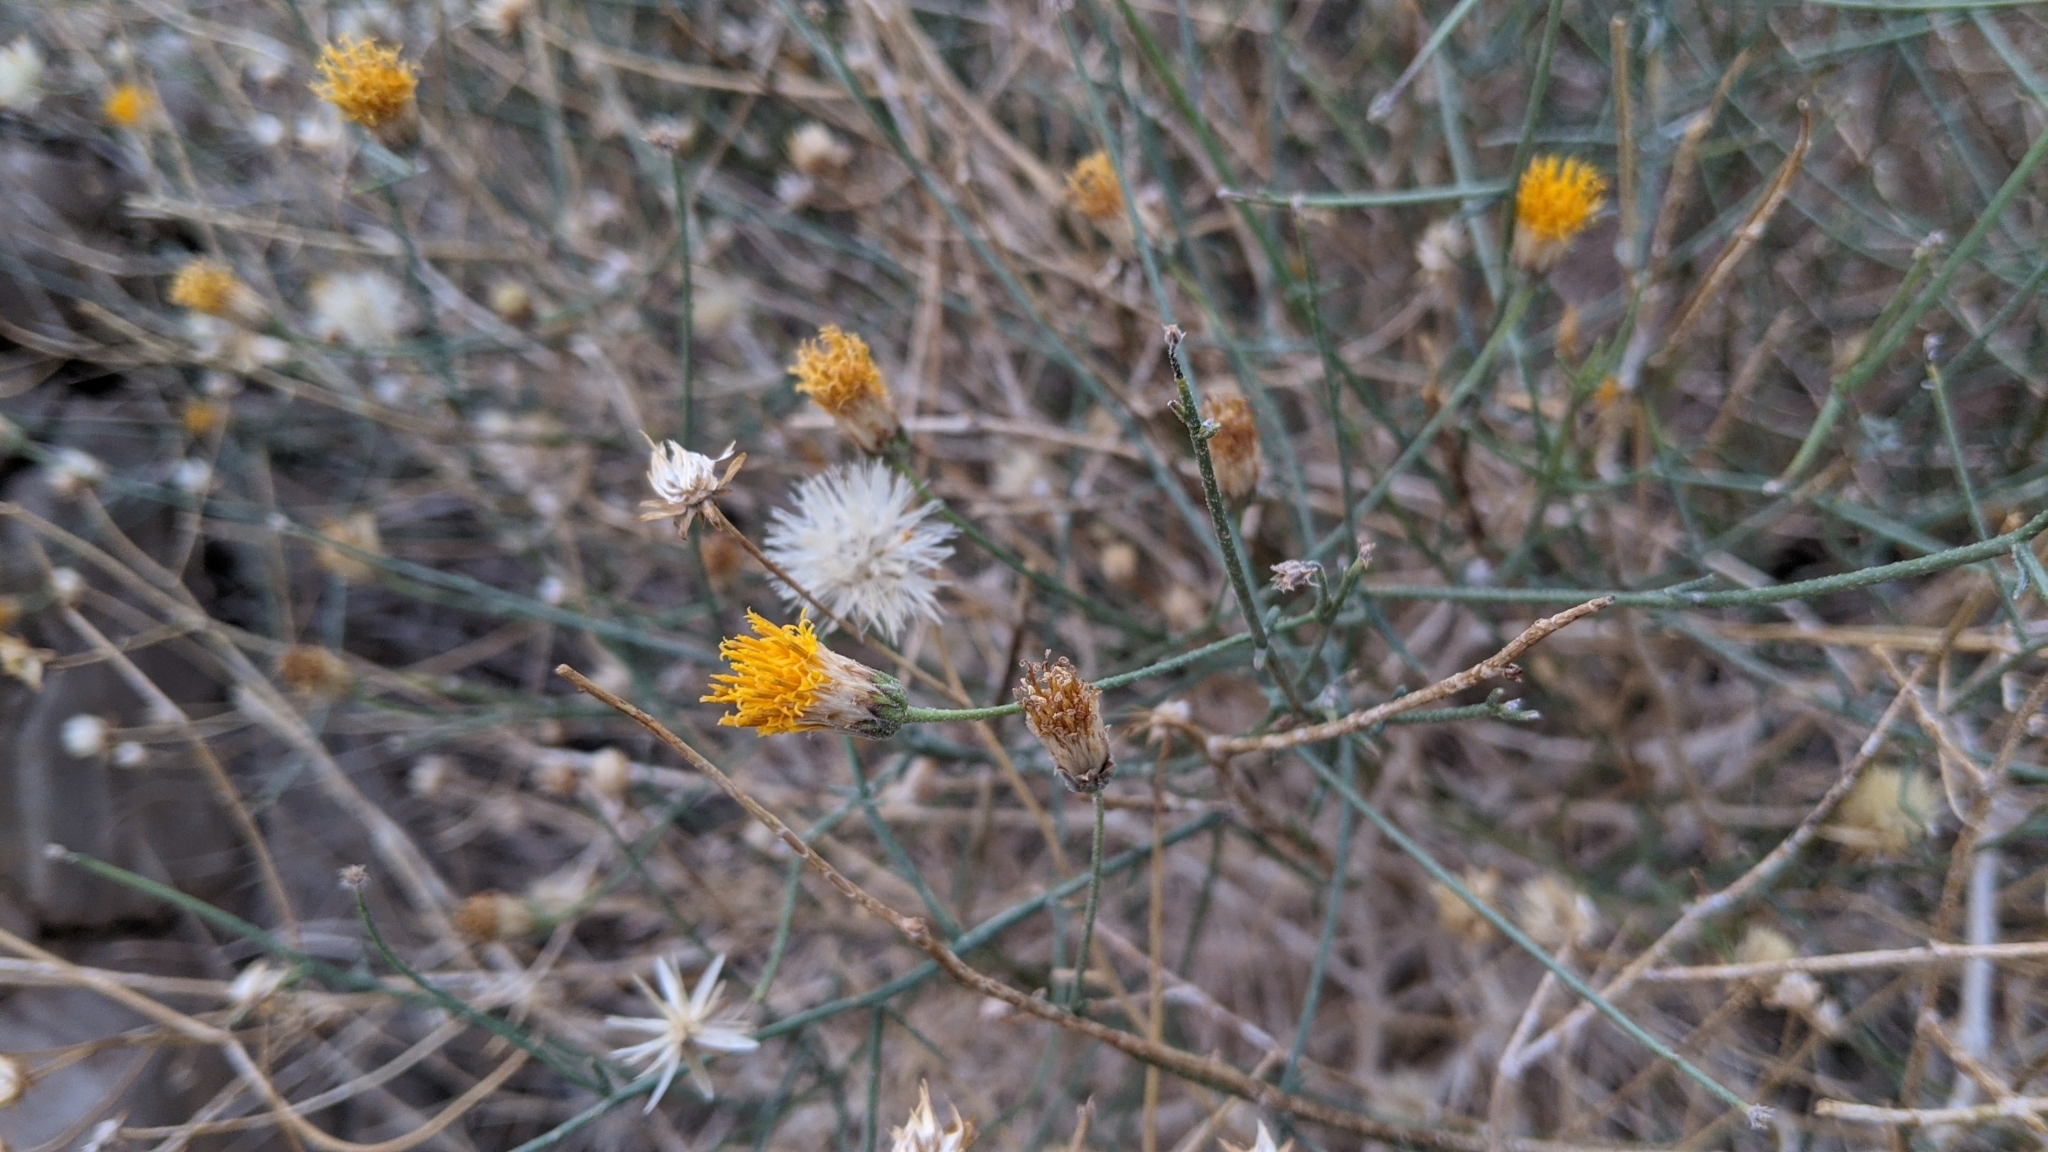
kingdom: Plantae
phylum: Tracheophyta
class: Magnoliopsida
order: Asterales
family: Asteraceae
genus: Bebbia
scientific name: Bebbia juncea
